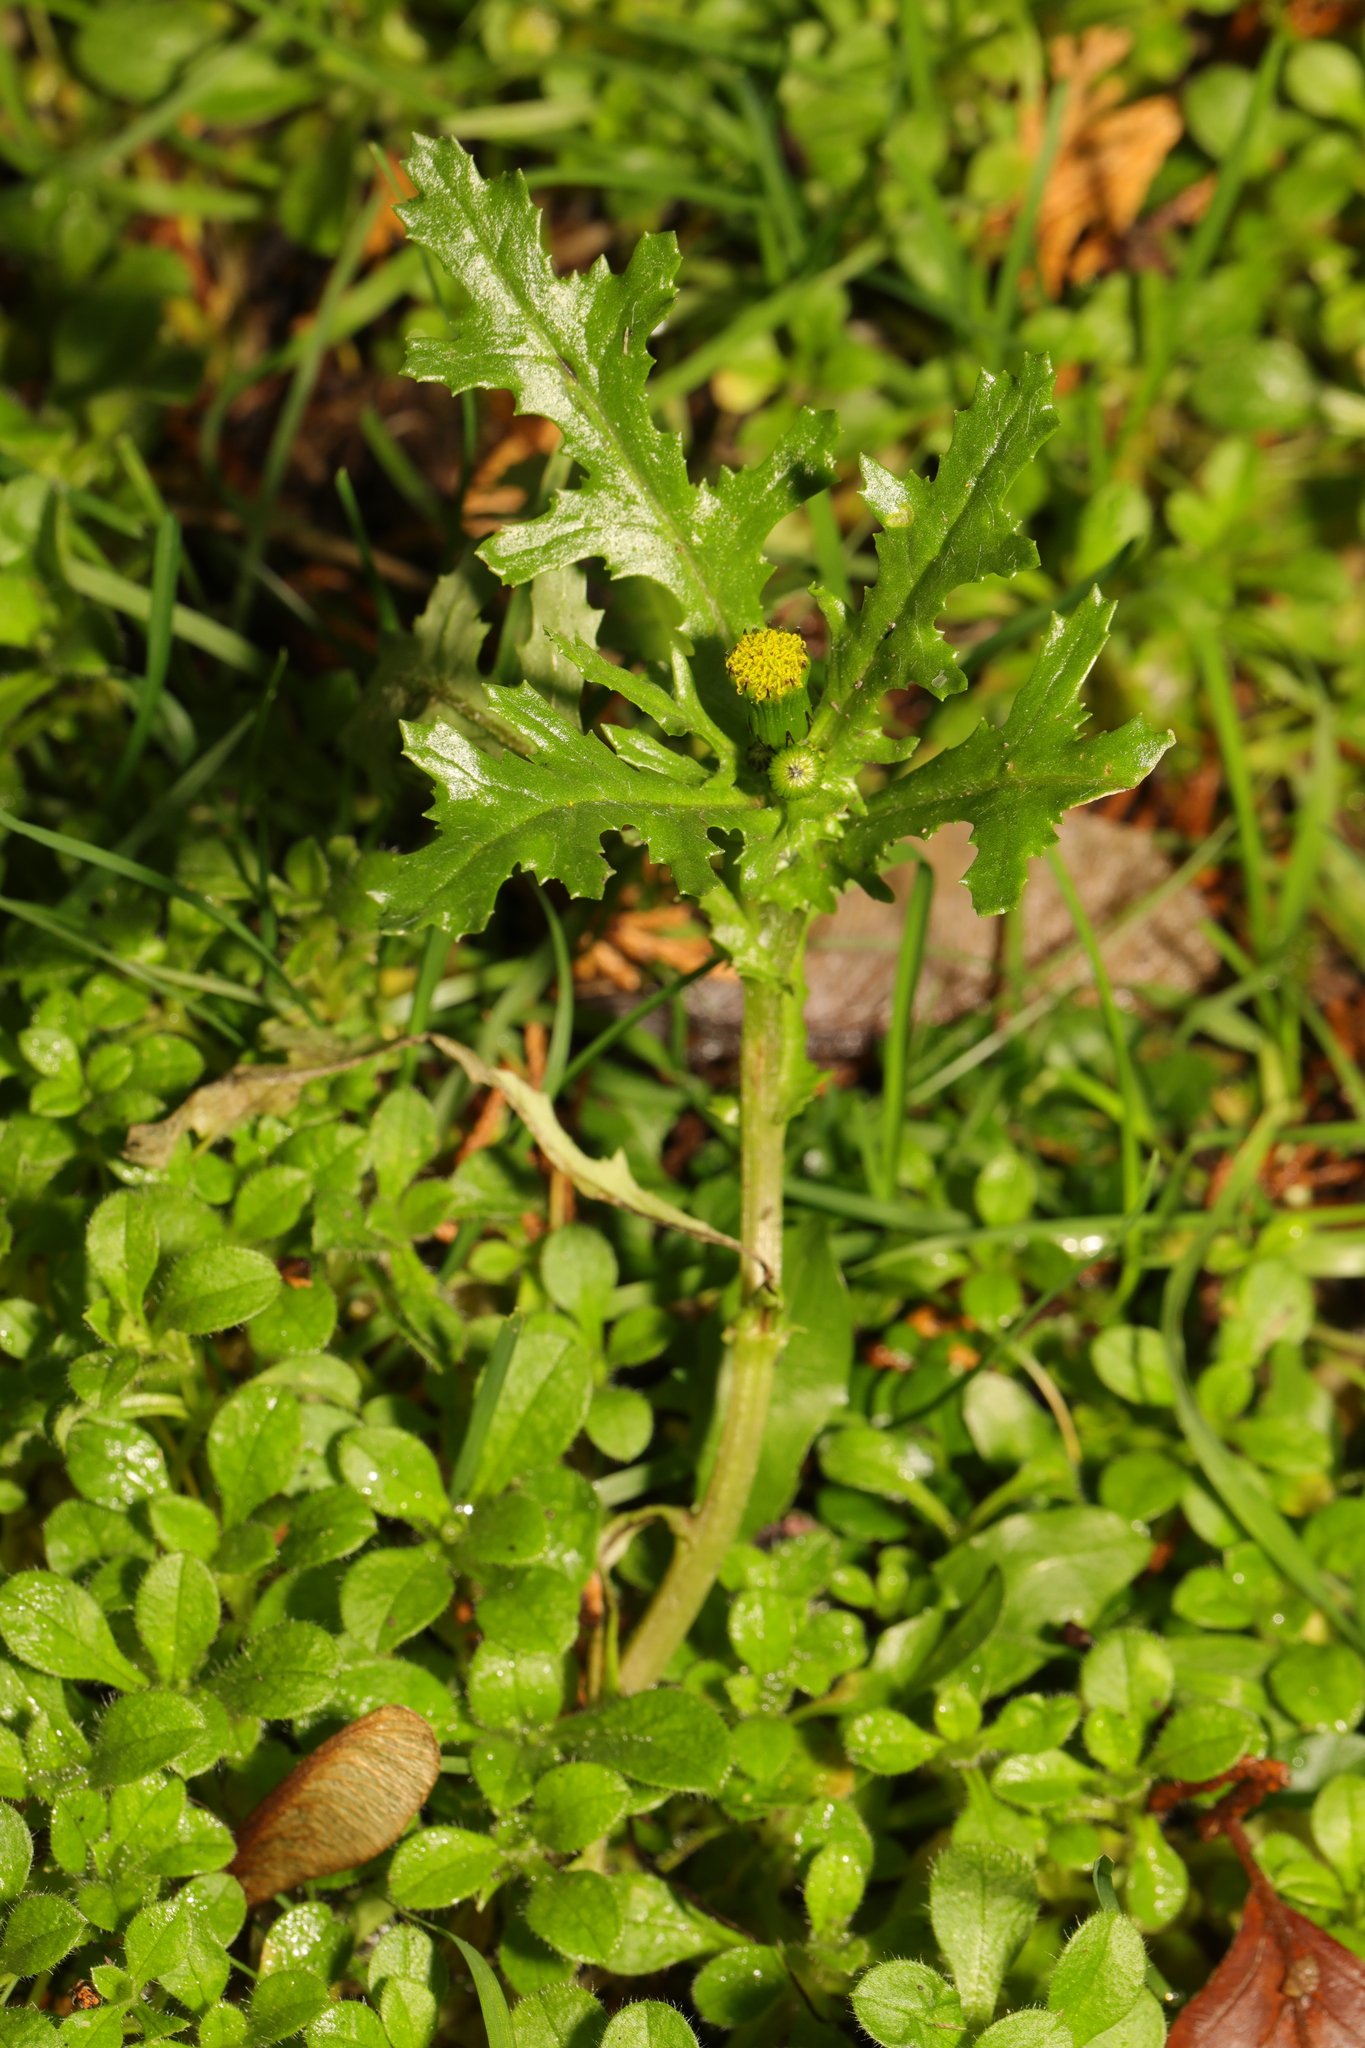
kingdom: Plantae
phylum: Tracheophyta
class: Magnoliopsida
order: Asterales
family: Asteraceae
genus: Senecio
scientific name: Senecio vulgaris
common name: Old-man-in-the-spring
